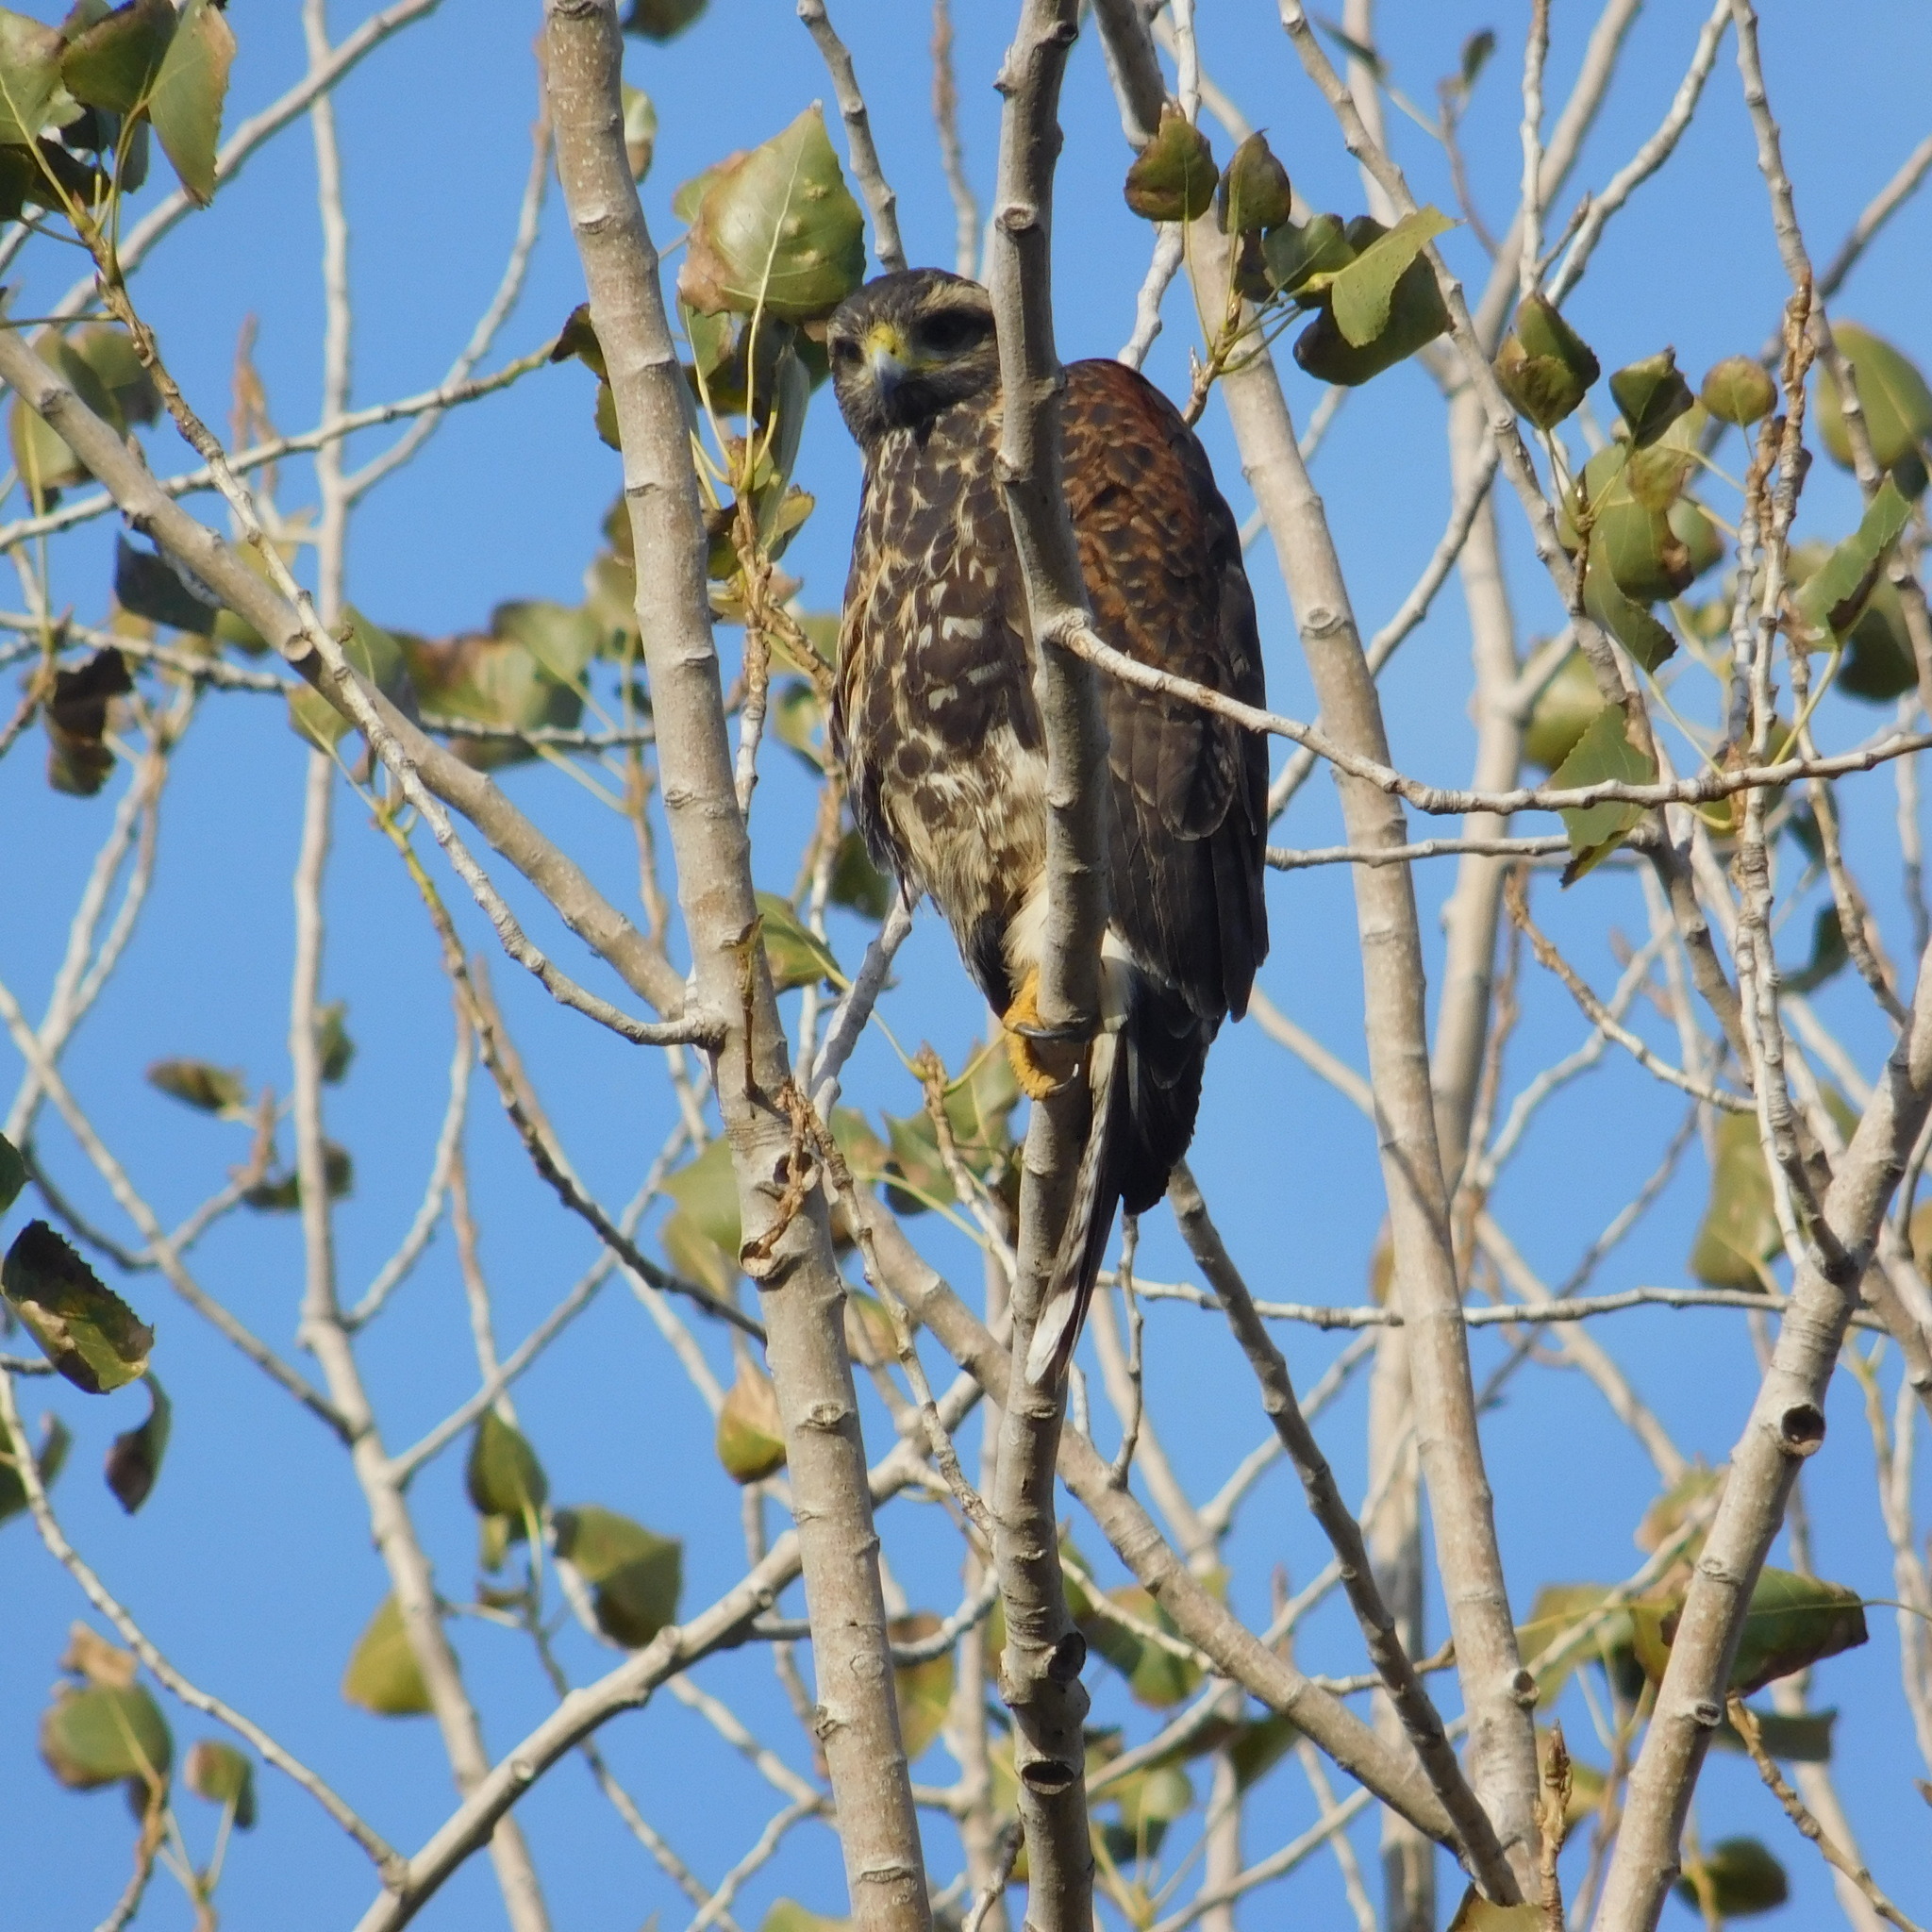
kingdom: Animalia
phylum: Chordata
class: Aves
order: Accipitriformes
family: Accipitridae
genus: Parabuteo
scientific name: Parabuteo unicinctus
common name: Harris's hawk
